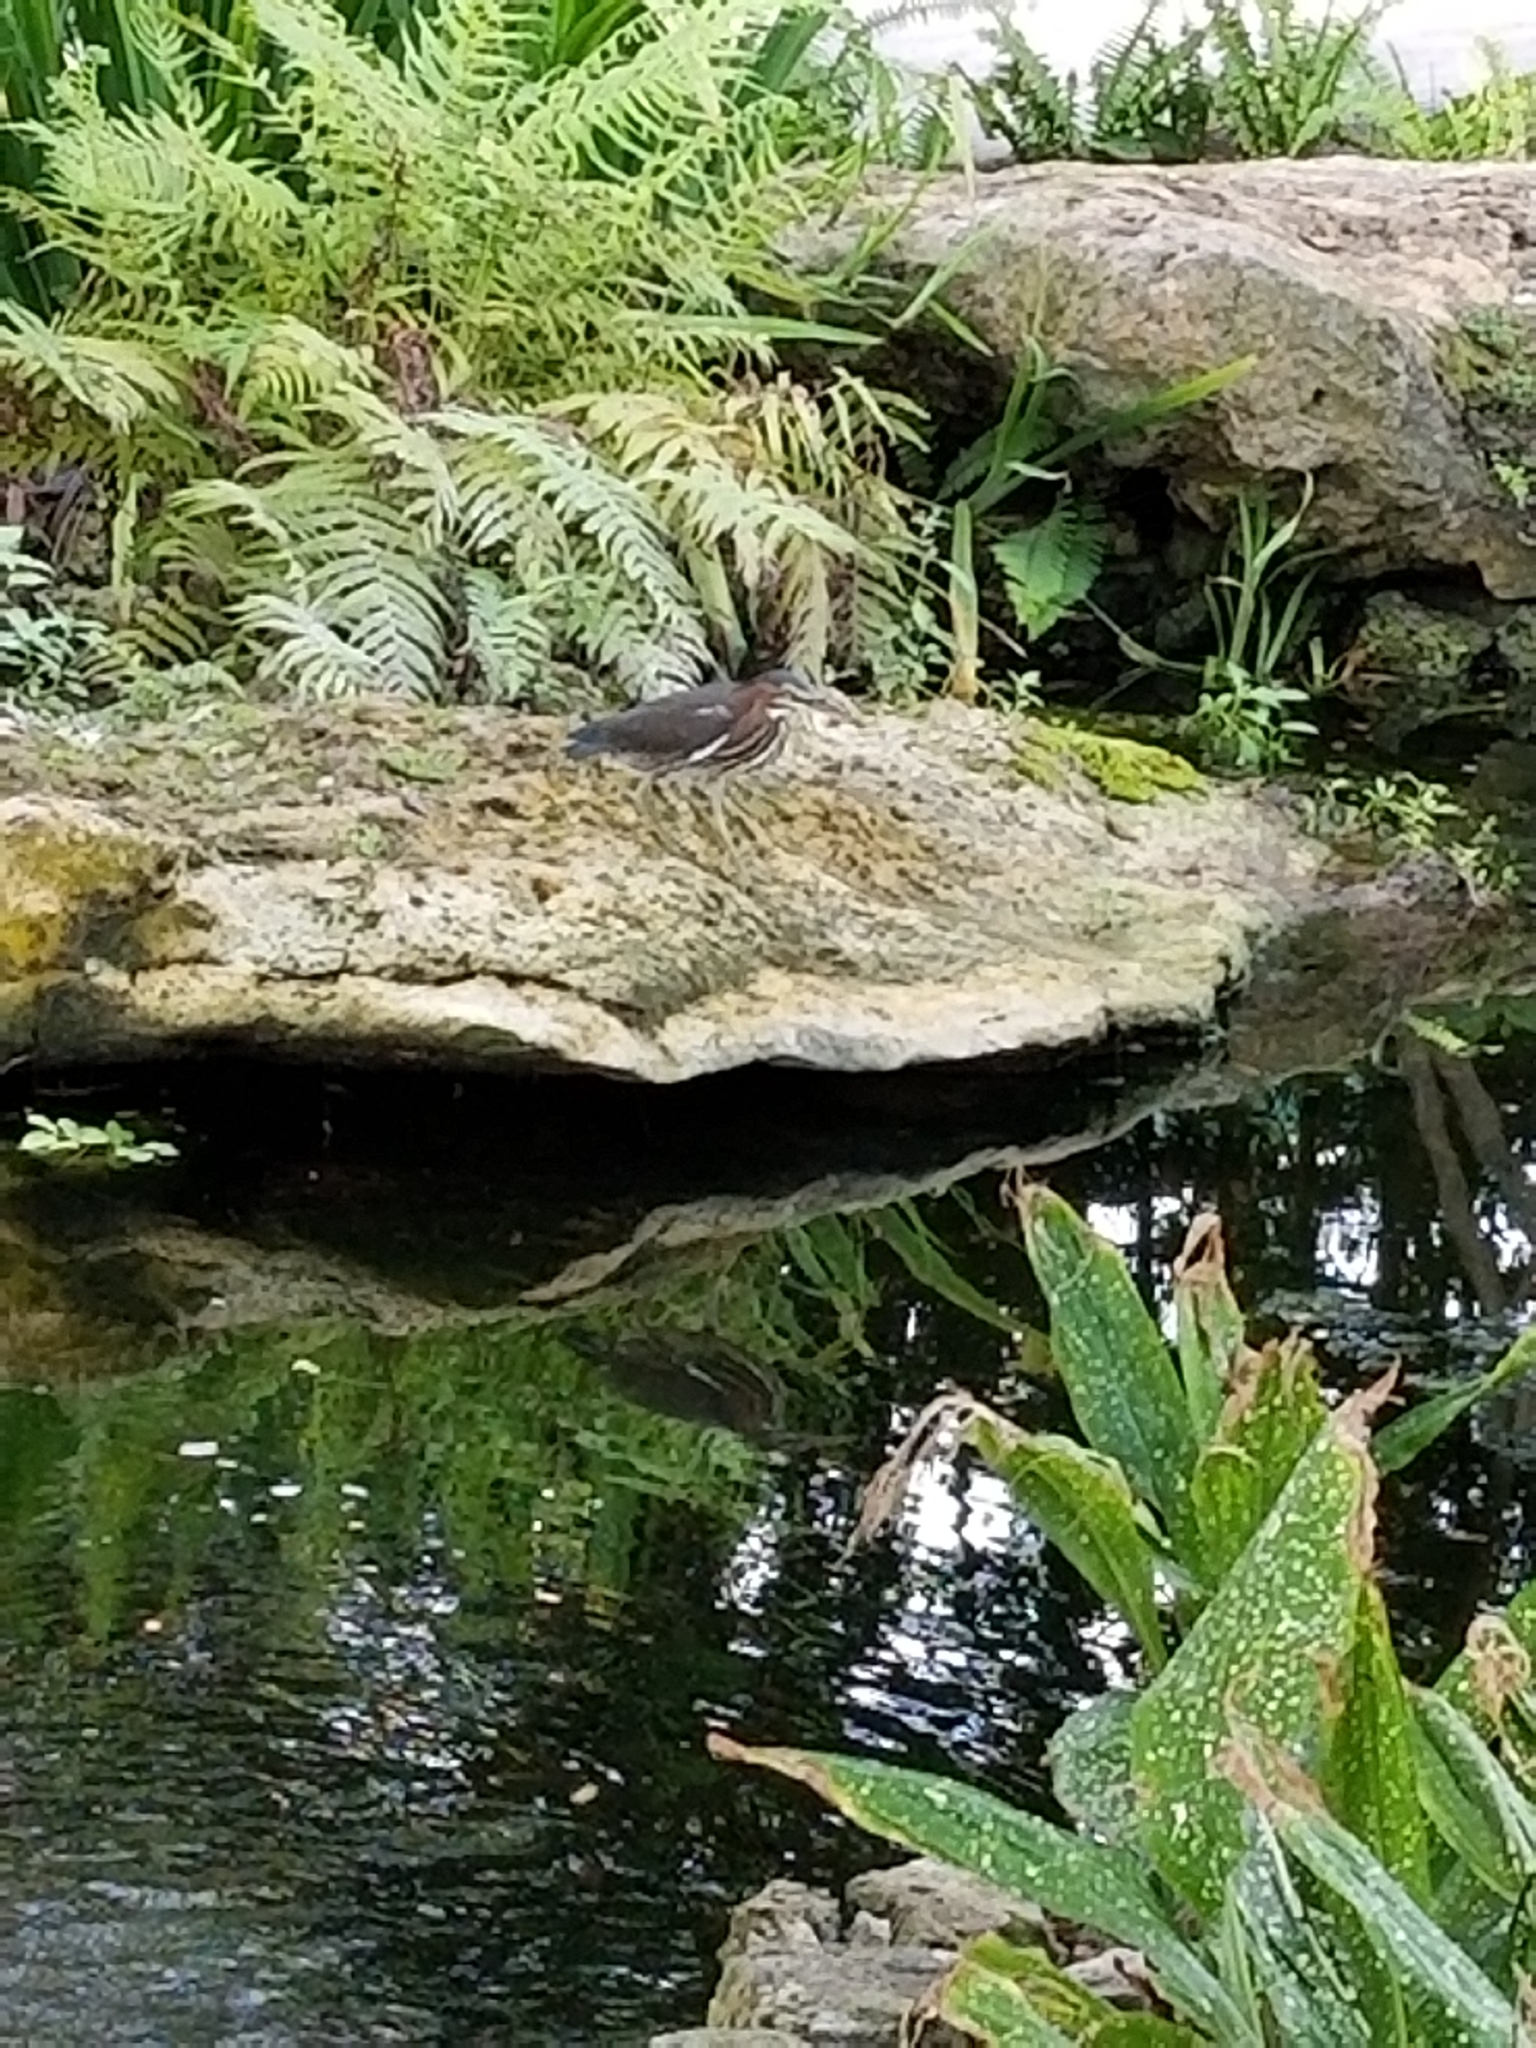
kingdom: Animalia
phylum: Chordata
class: Aves
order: Pelecaniformes
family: Ardeidae
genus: Butorides
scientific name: Butorides virescens
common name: Green heron
